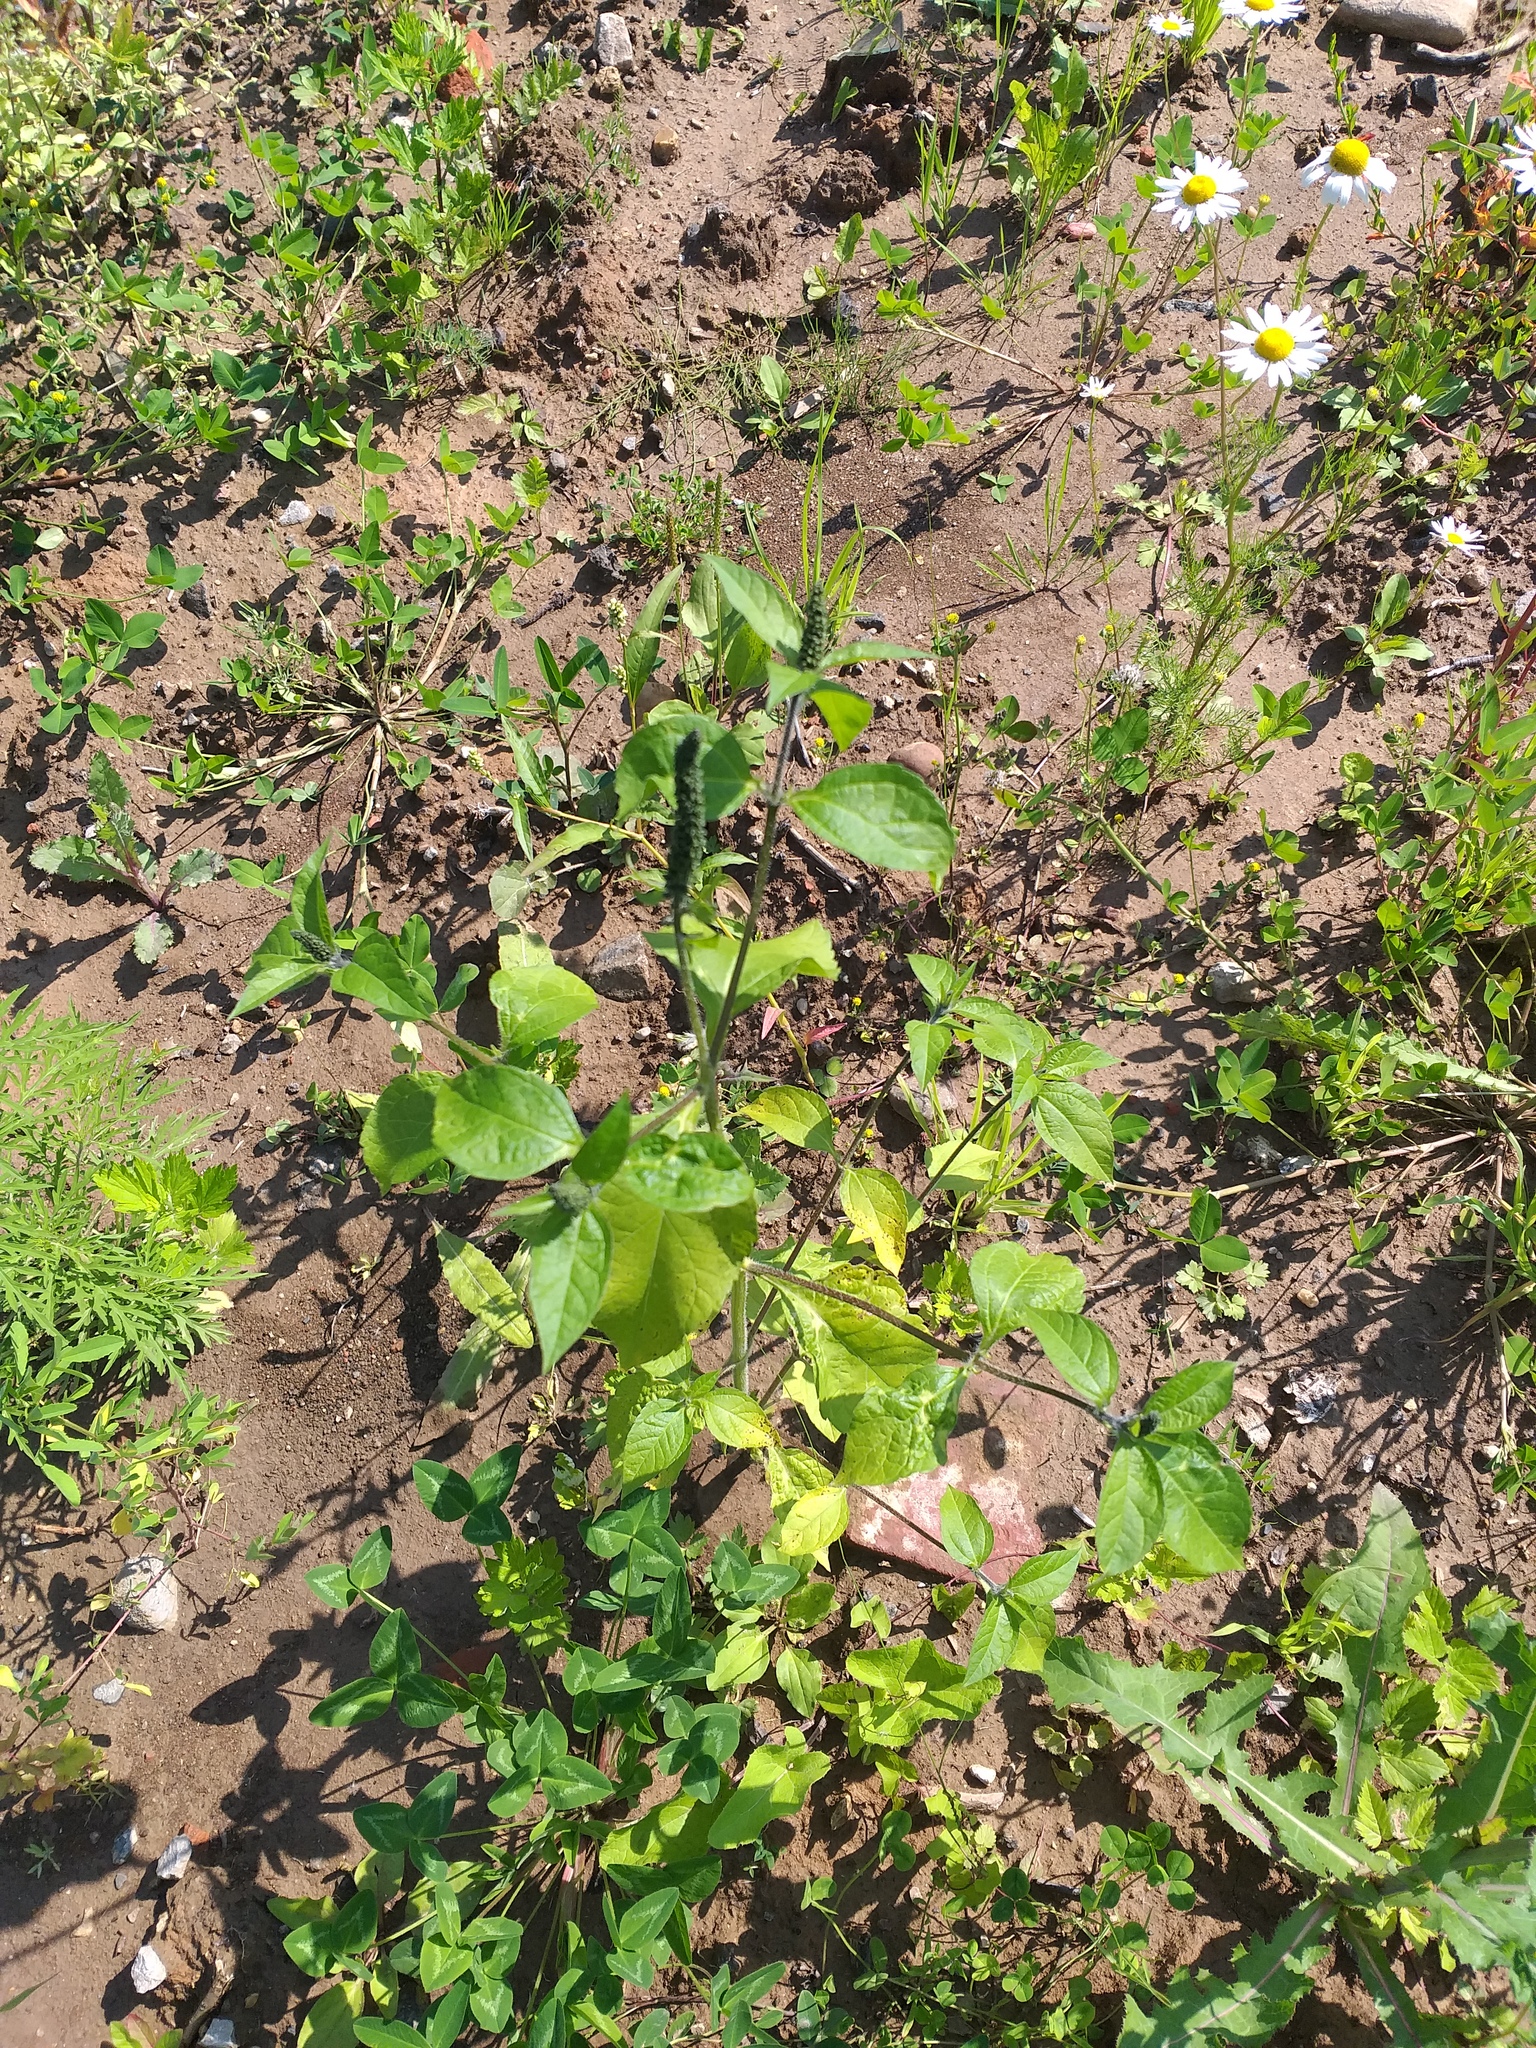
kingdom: Plantae
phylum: Tracheophyta
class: Magnoliopsida
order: Asterales
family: Asteraceae
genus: Ambrosia
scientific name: Ambrosia trifida
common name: Giant ragweed
